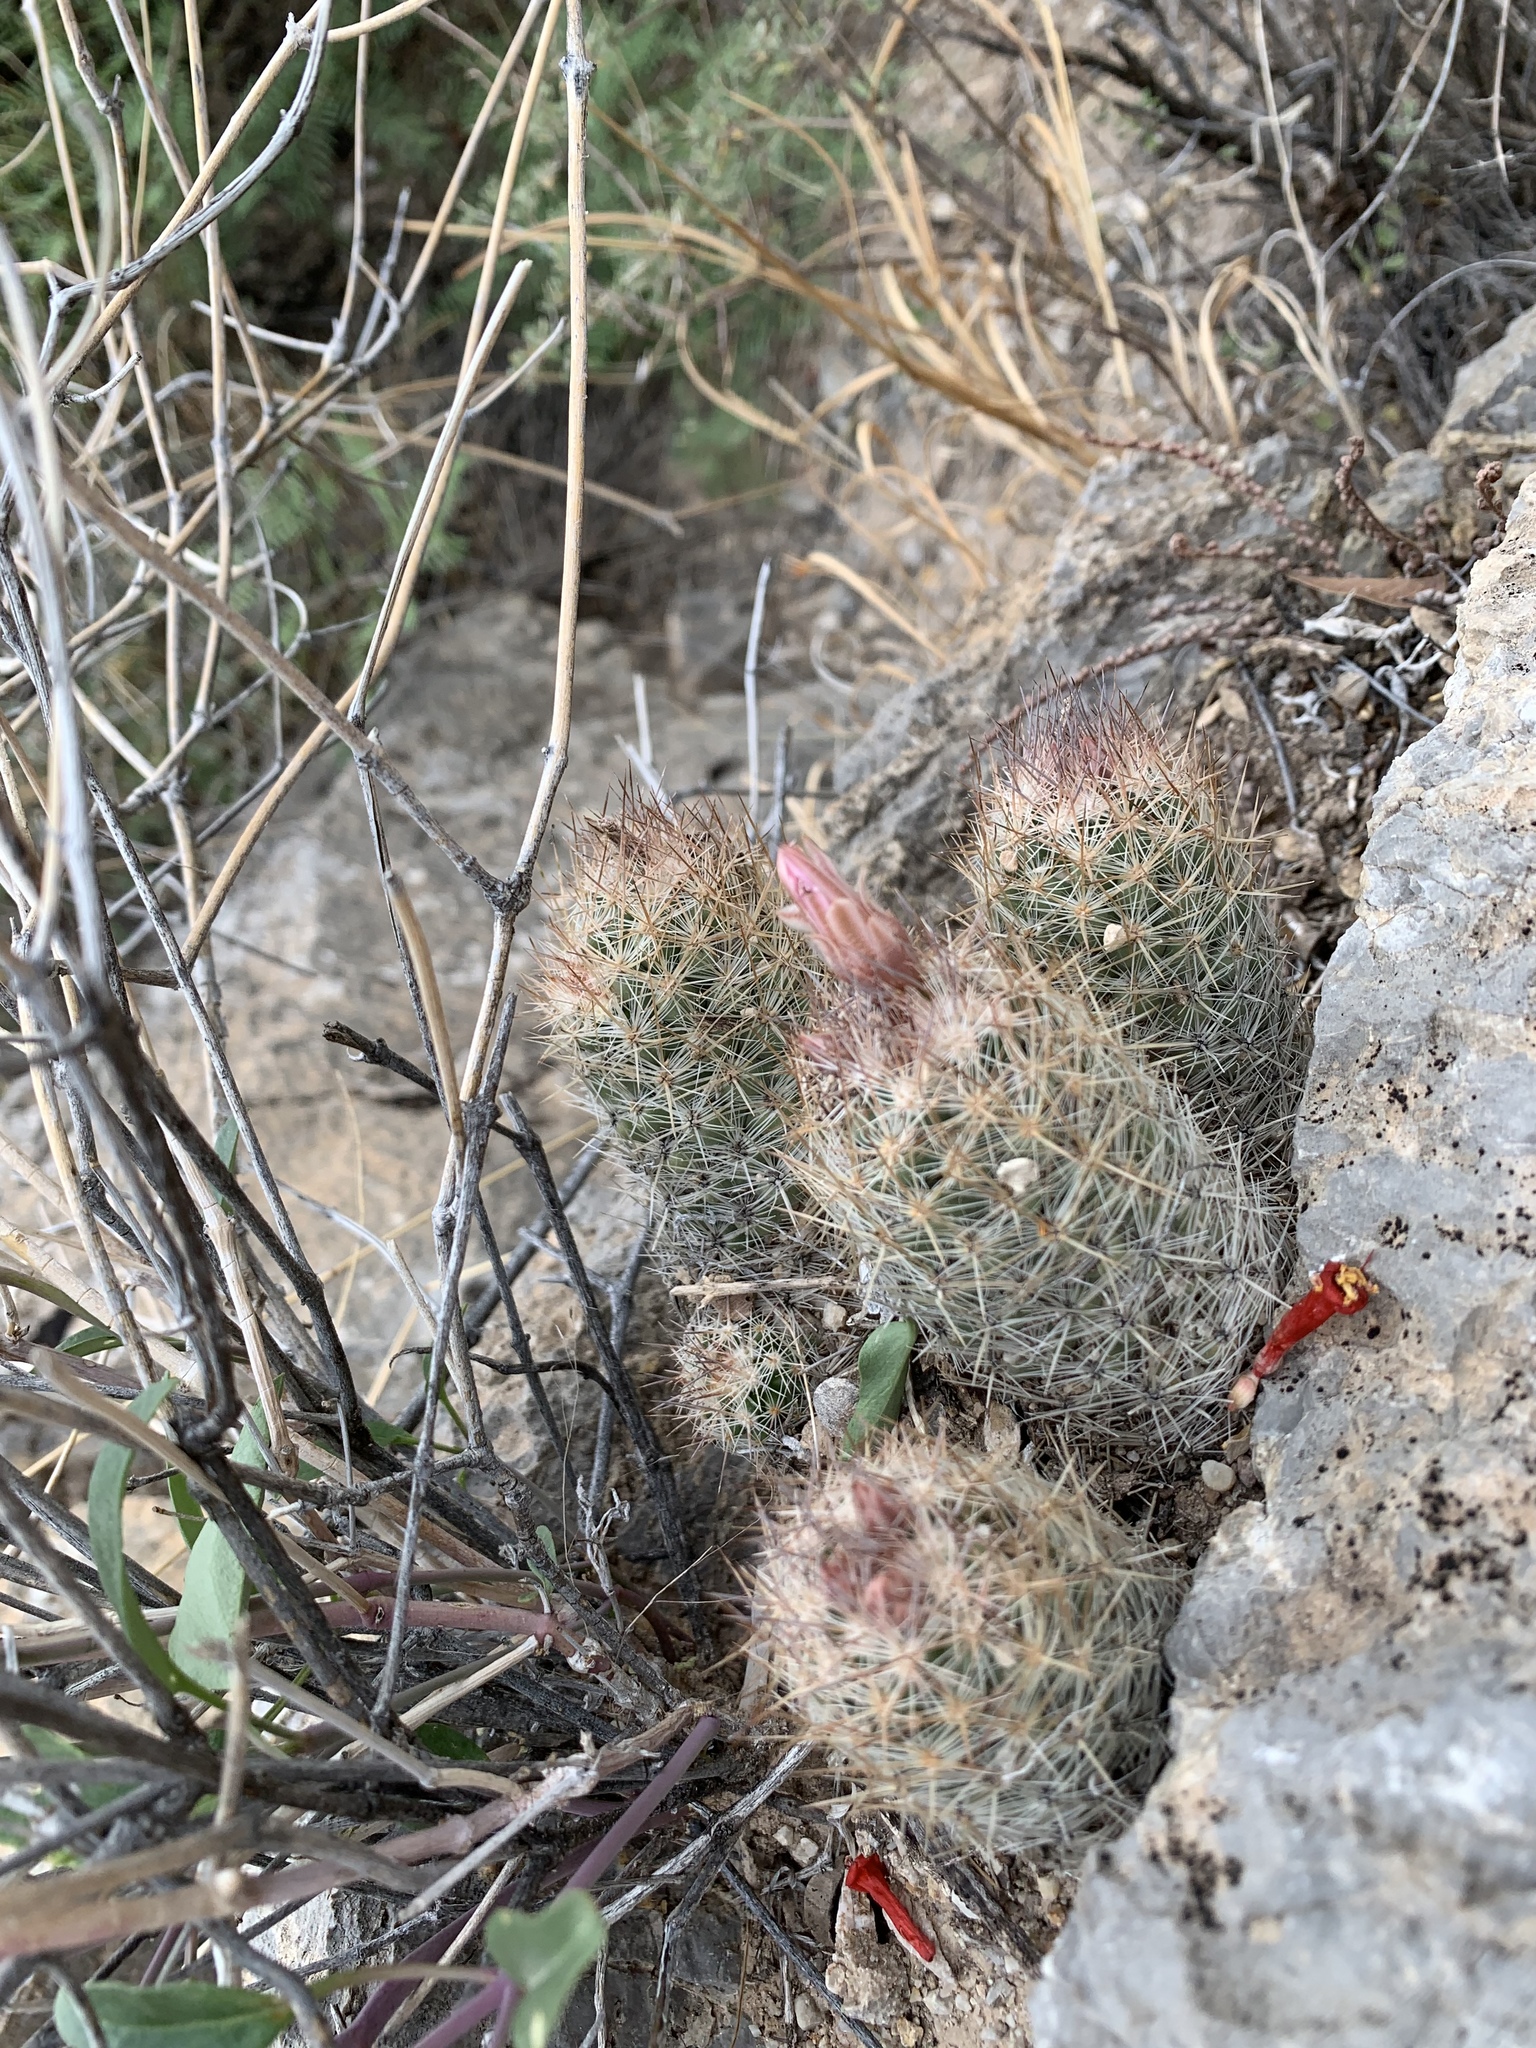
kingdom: Plantae
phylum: Tracheophyta
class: Magnoliopsida
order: Caryophyllales
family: Cactaceae
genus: Pelecyphora
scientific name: Pelecyphora tuberculosa
